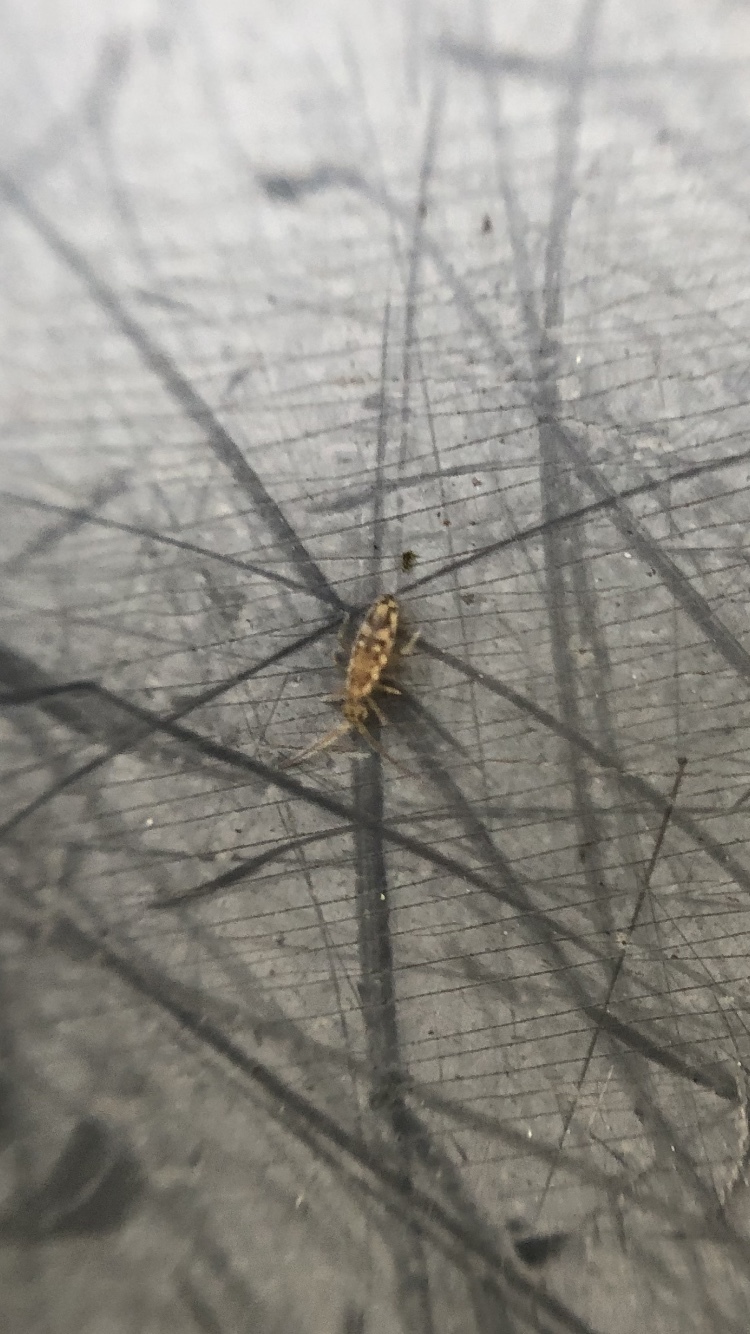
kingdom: Animalia
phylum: Arthropoda
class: Collembola
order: Entomobryomorpha
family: Entomobryidae
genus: Entomobrya
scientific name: Entomobrya intermedia
